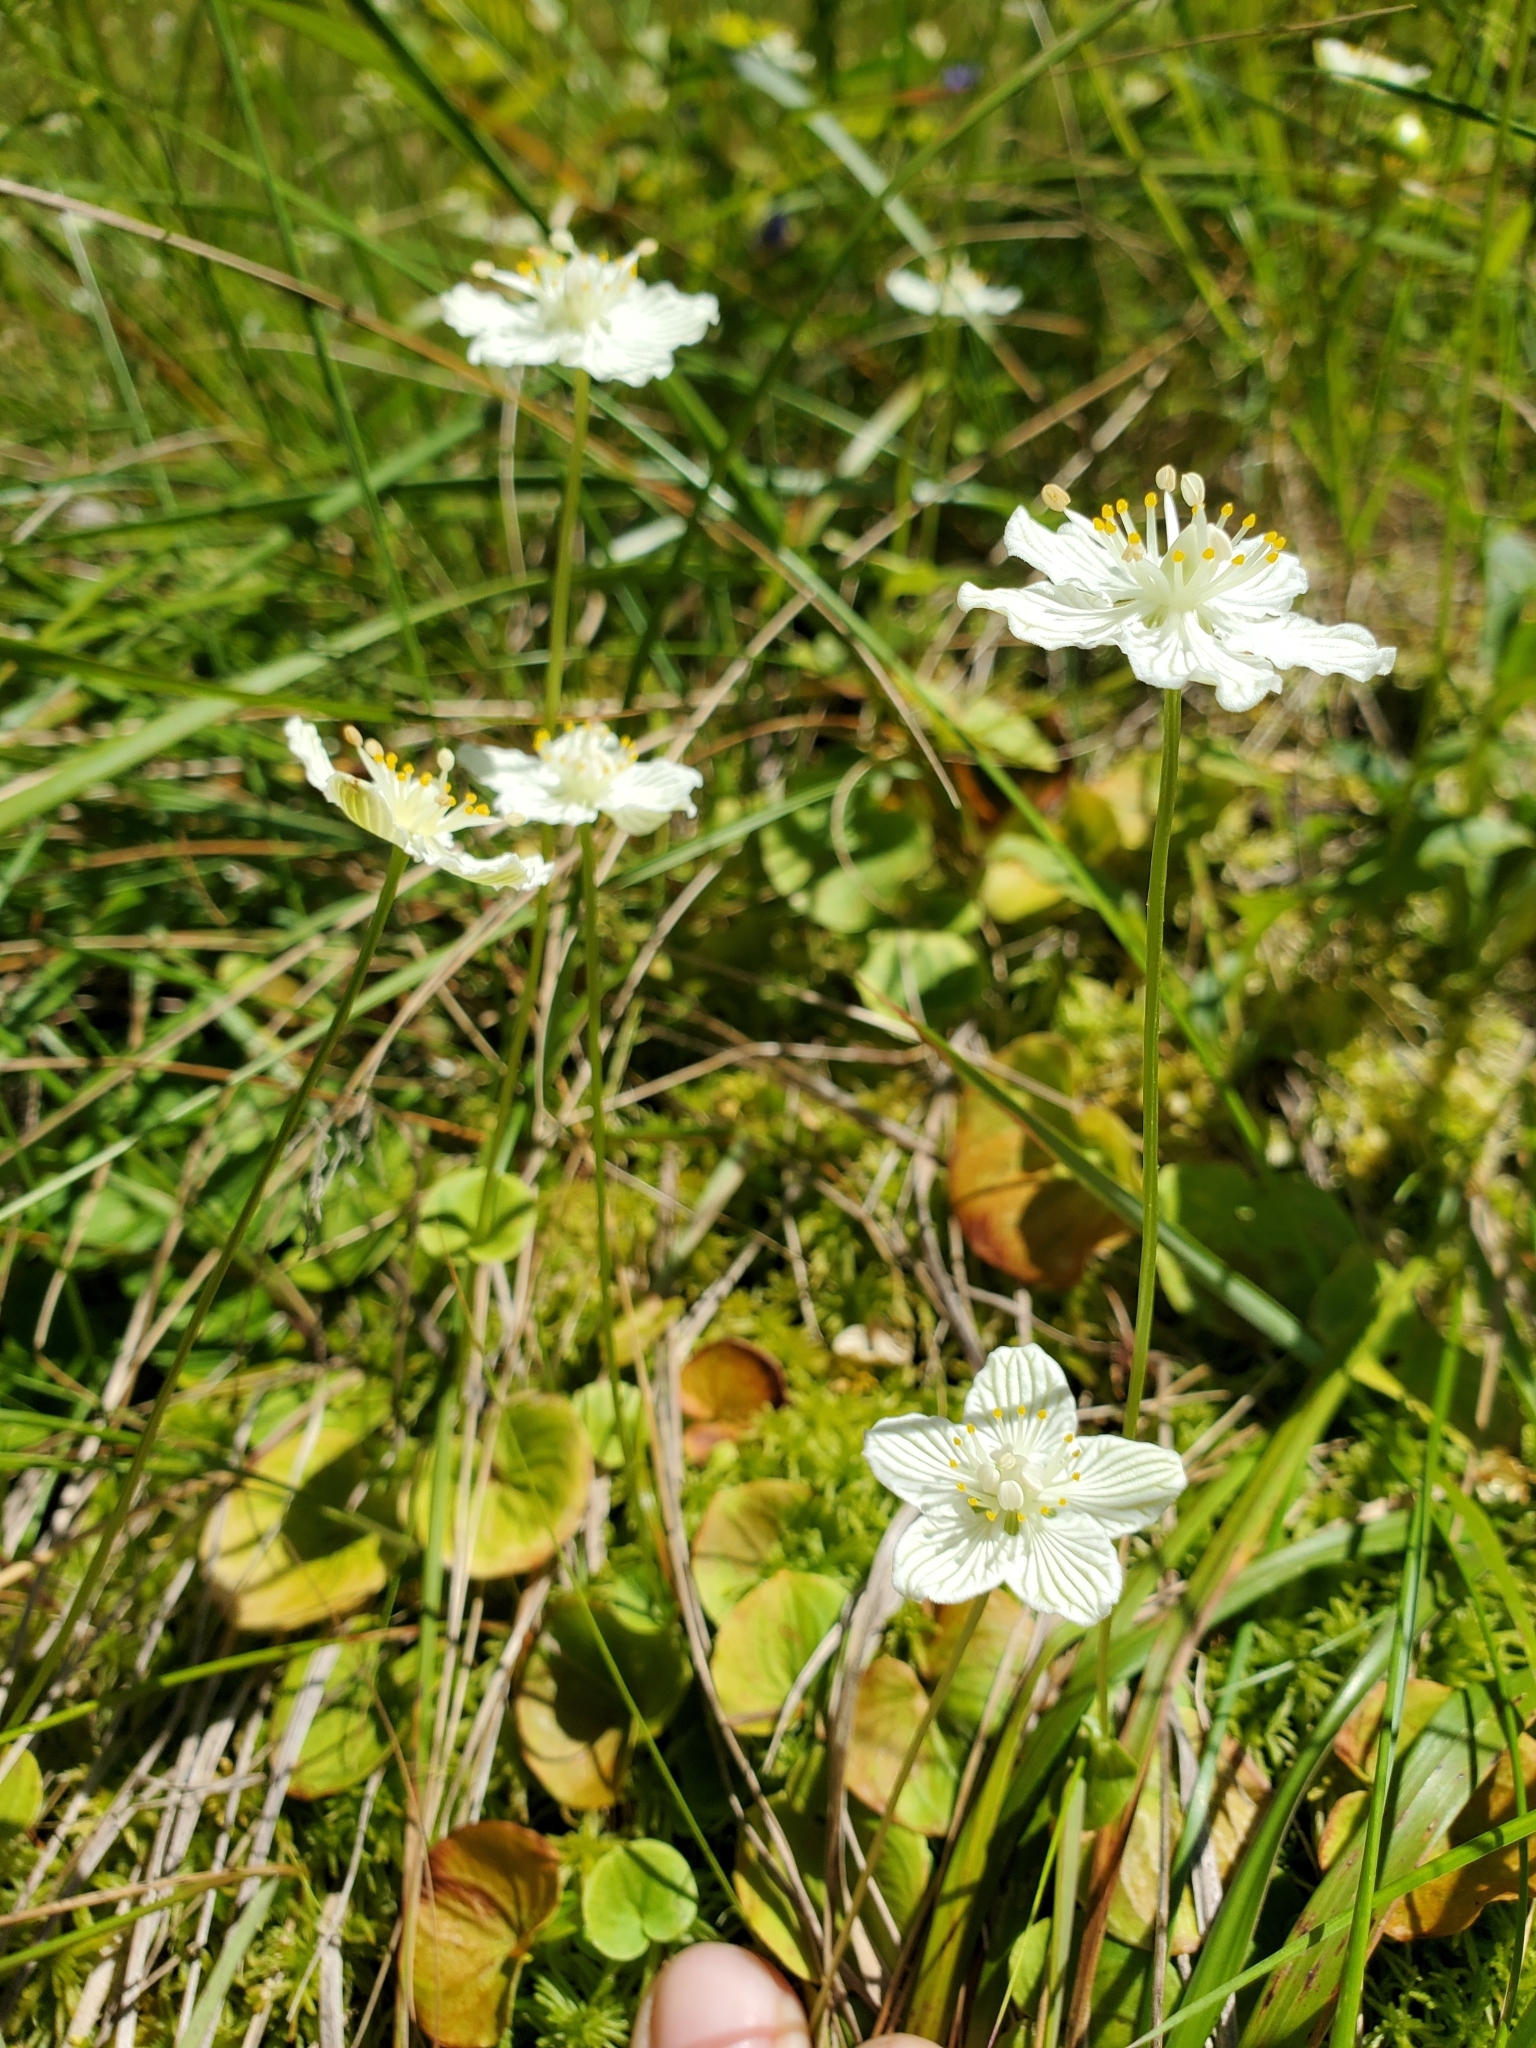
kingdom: Plantae
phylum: Tracheophyta
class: Magnoliopsida
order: Celastrales
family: Parnassiaceae
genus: Parnassia
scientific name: Parnassia asarifolia
